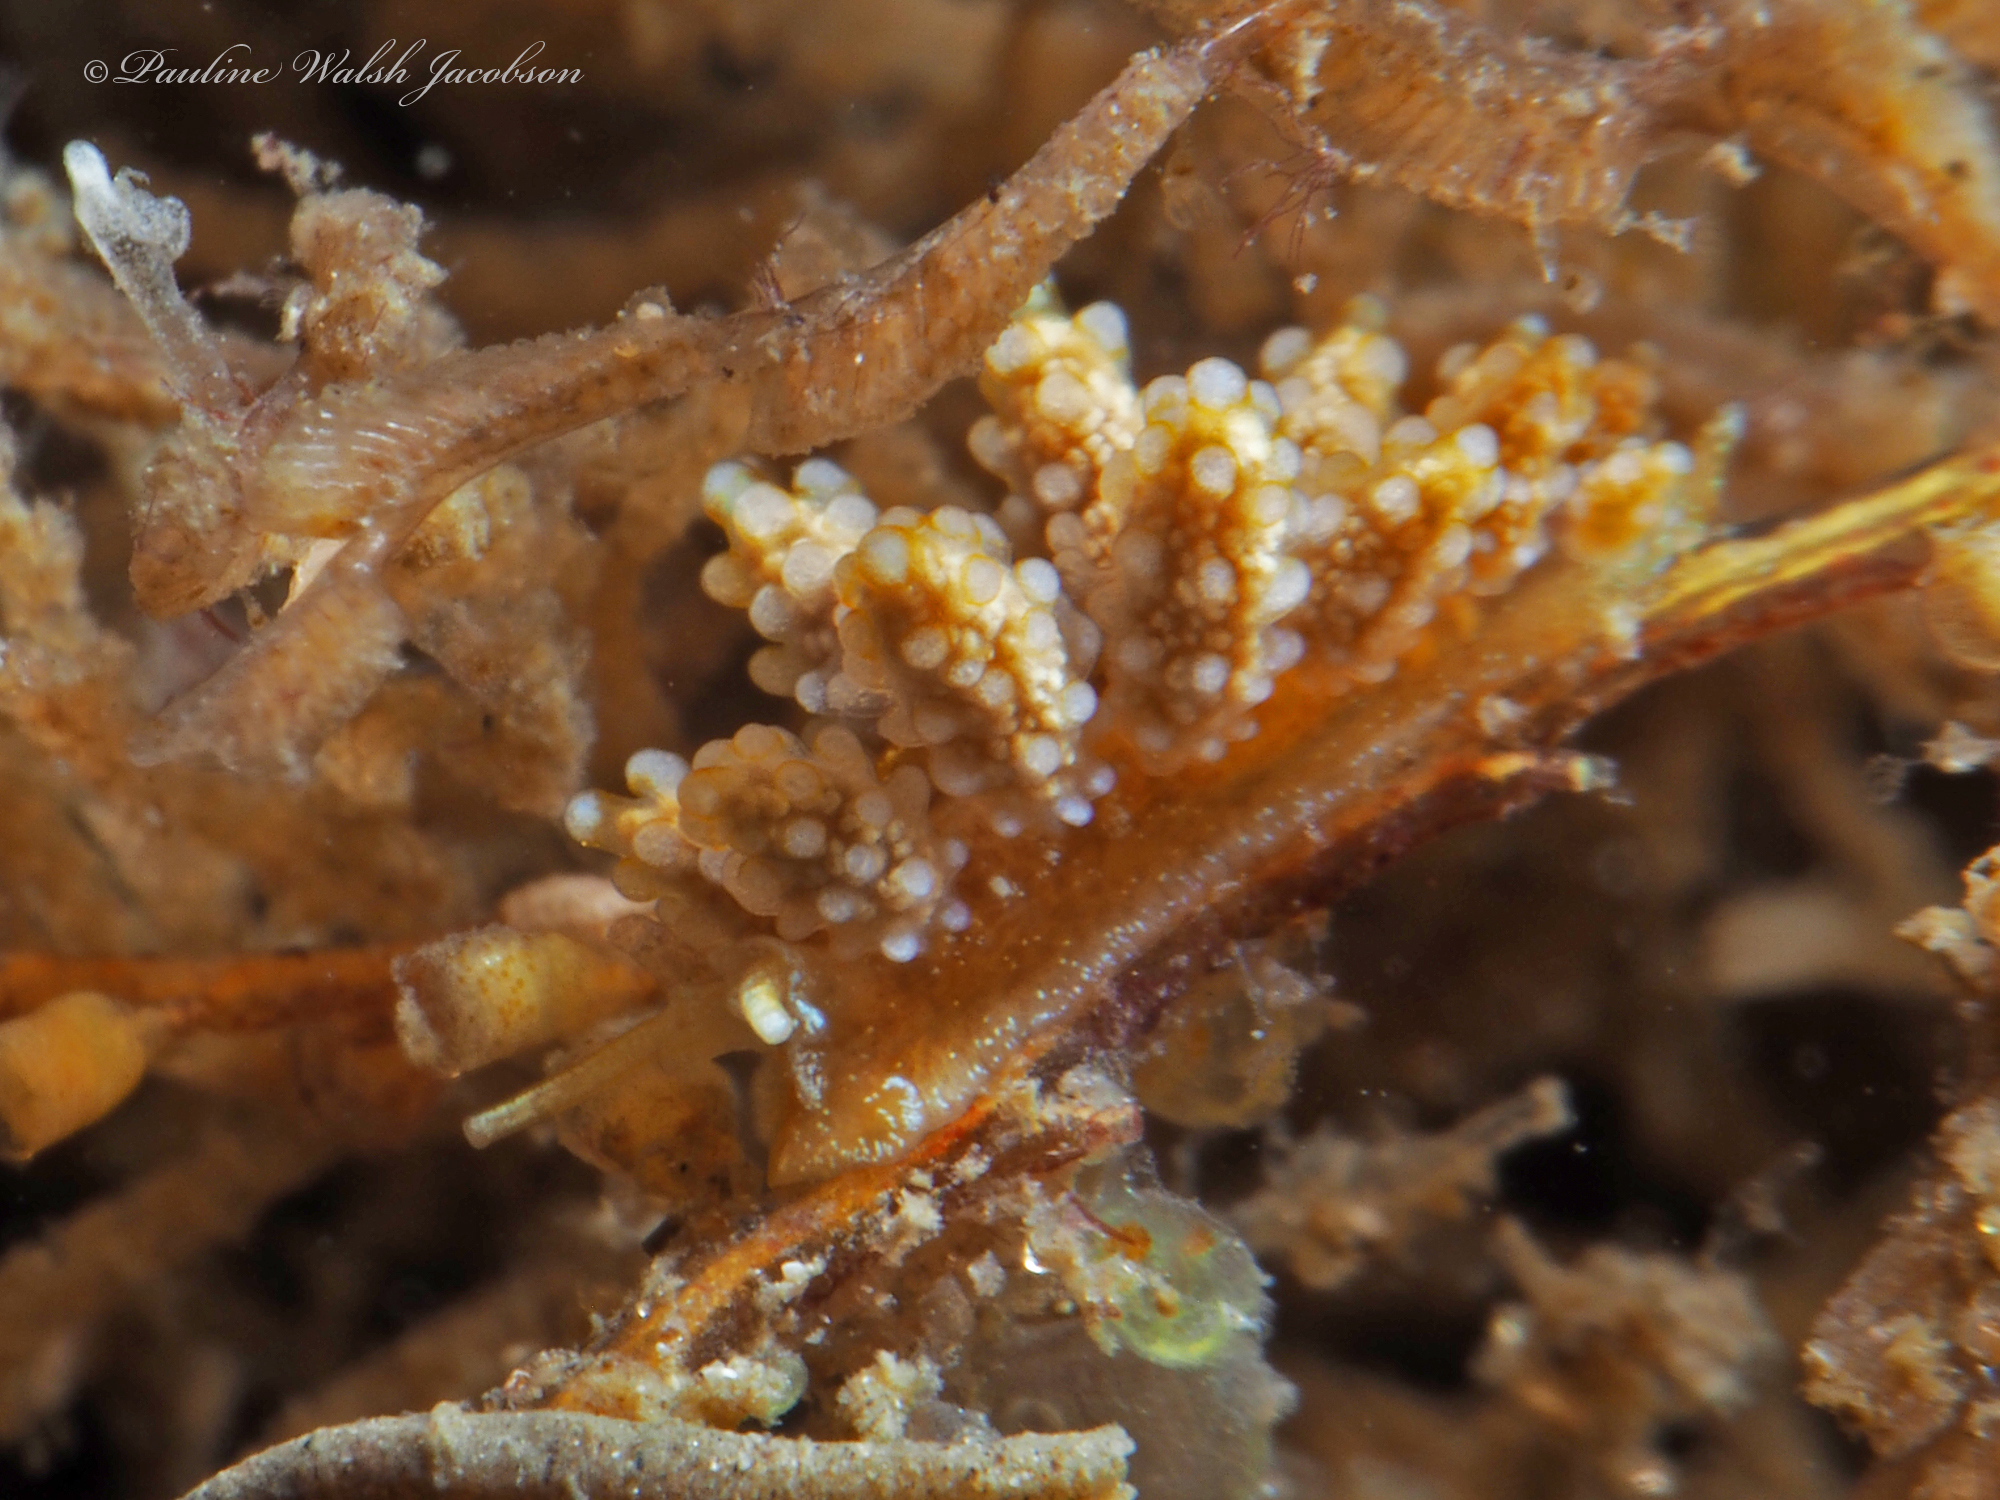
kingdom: Animalia
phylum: Mollusca
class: Gastropoda
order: Nudibranchia
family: Dotidae
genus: Doto
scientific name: Doto torrelavega
